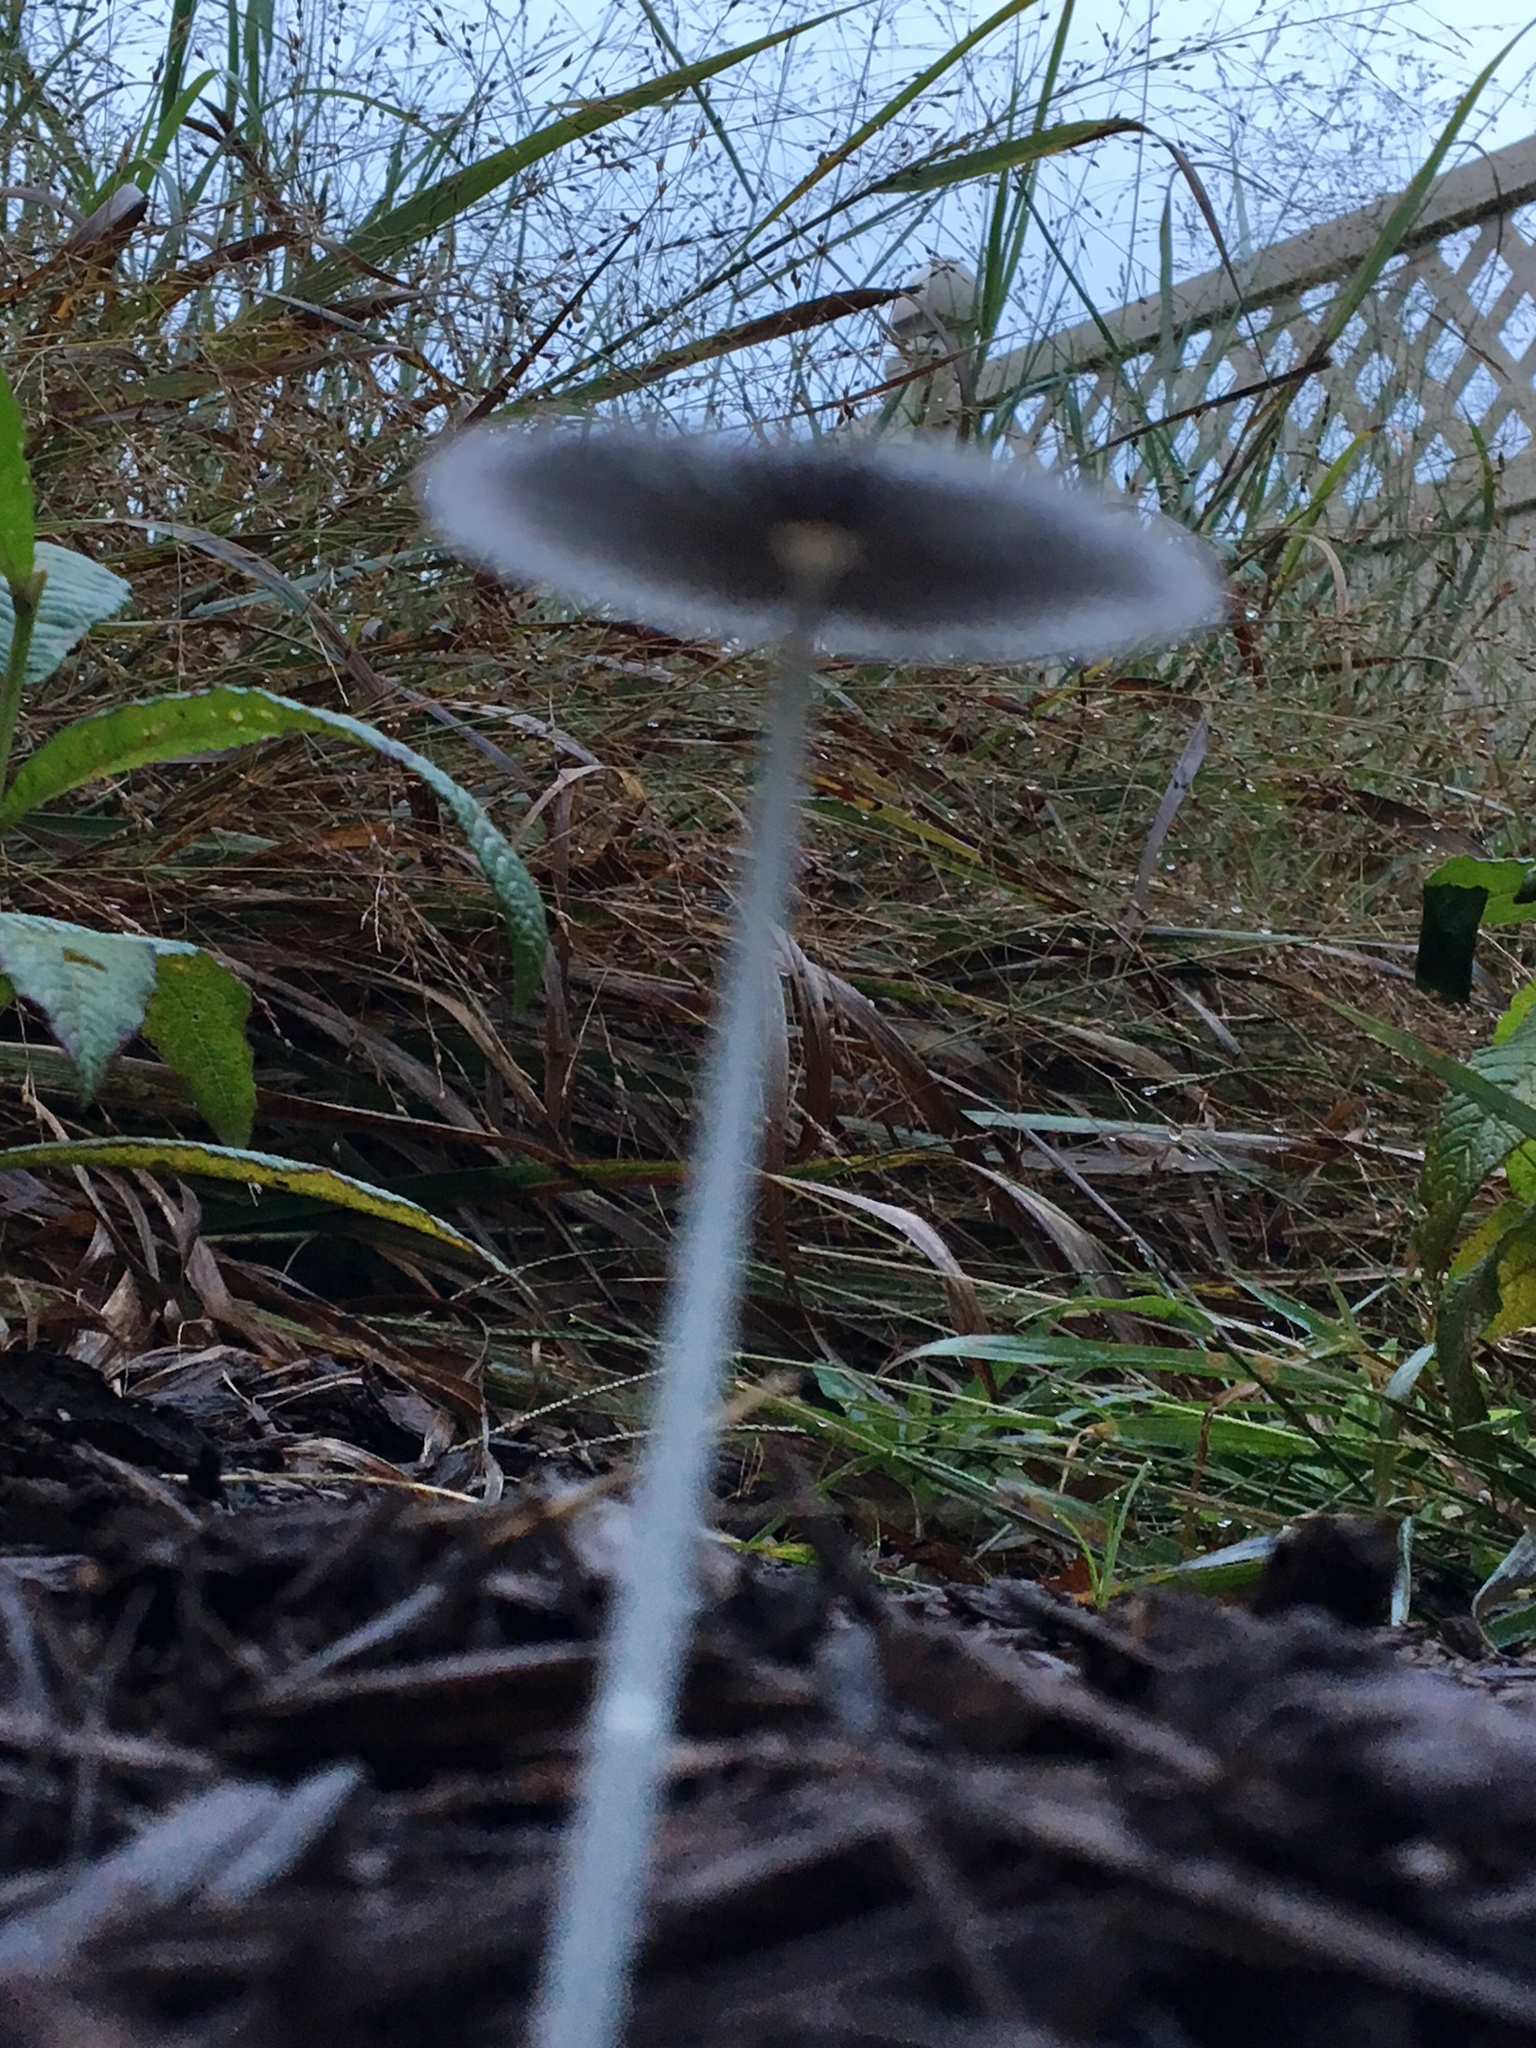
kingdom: Fungi
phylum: Basidiomycota
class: Agaricomycetes
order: Agaricales
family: Psathyrellaceae
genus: Parasola
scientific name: Parasola plicatilis
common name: Pleated inkcap
